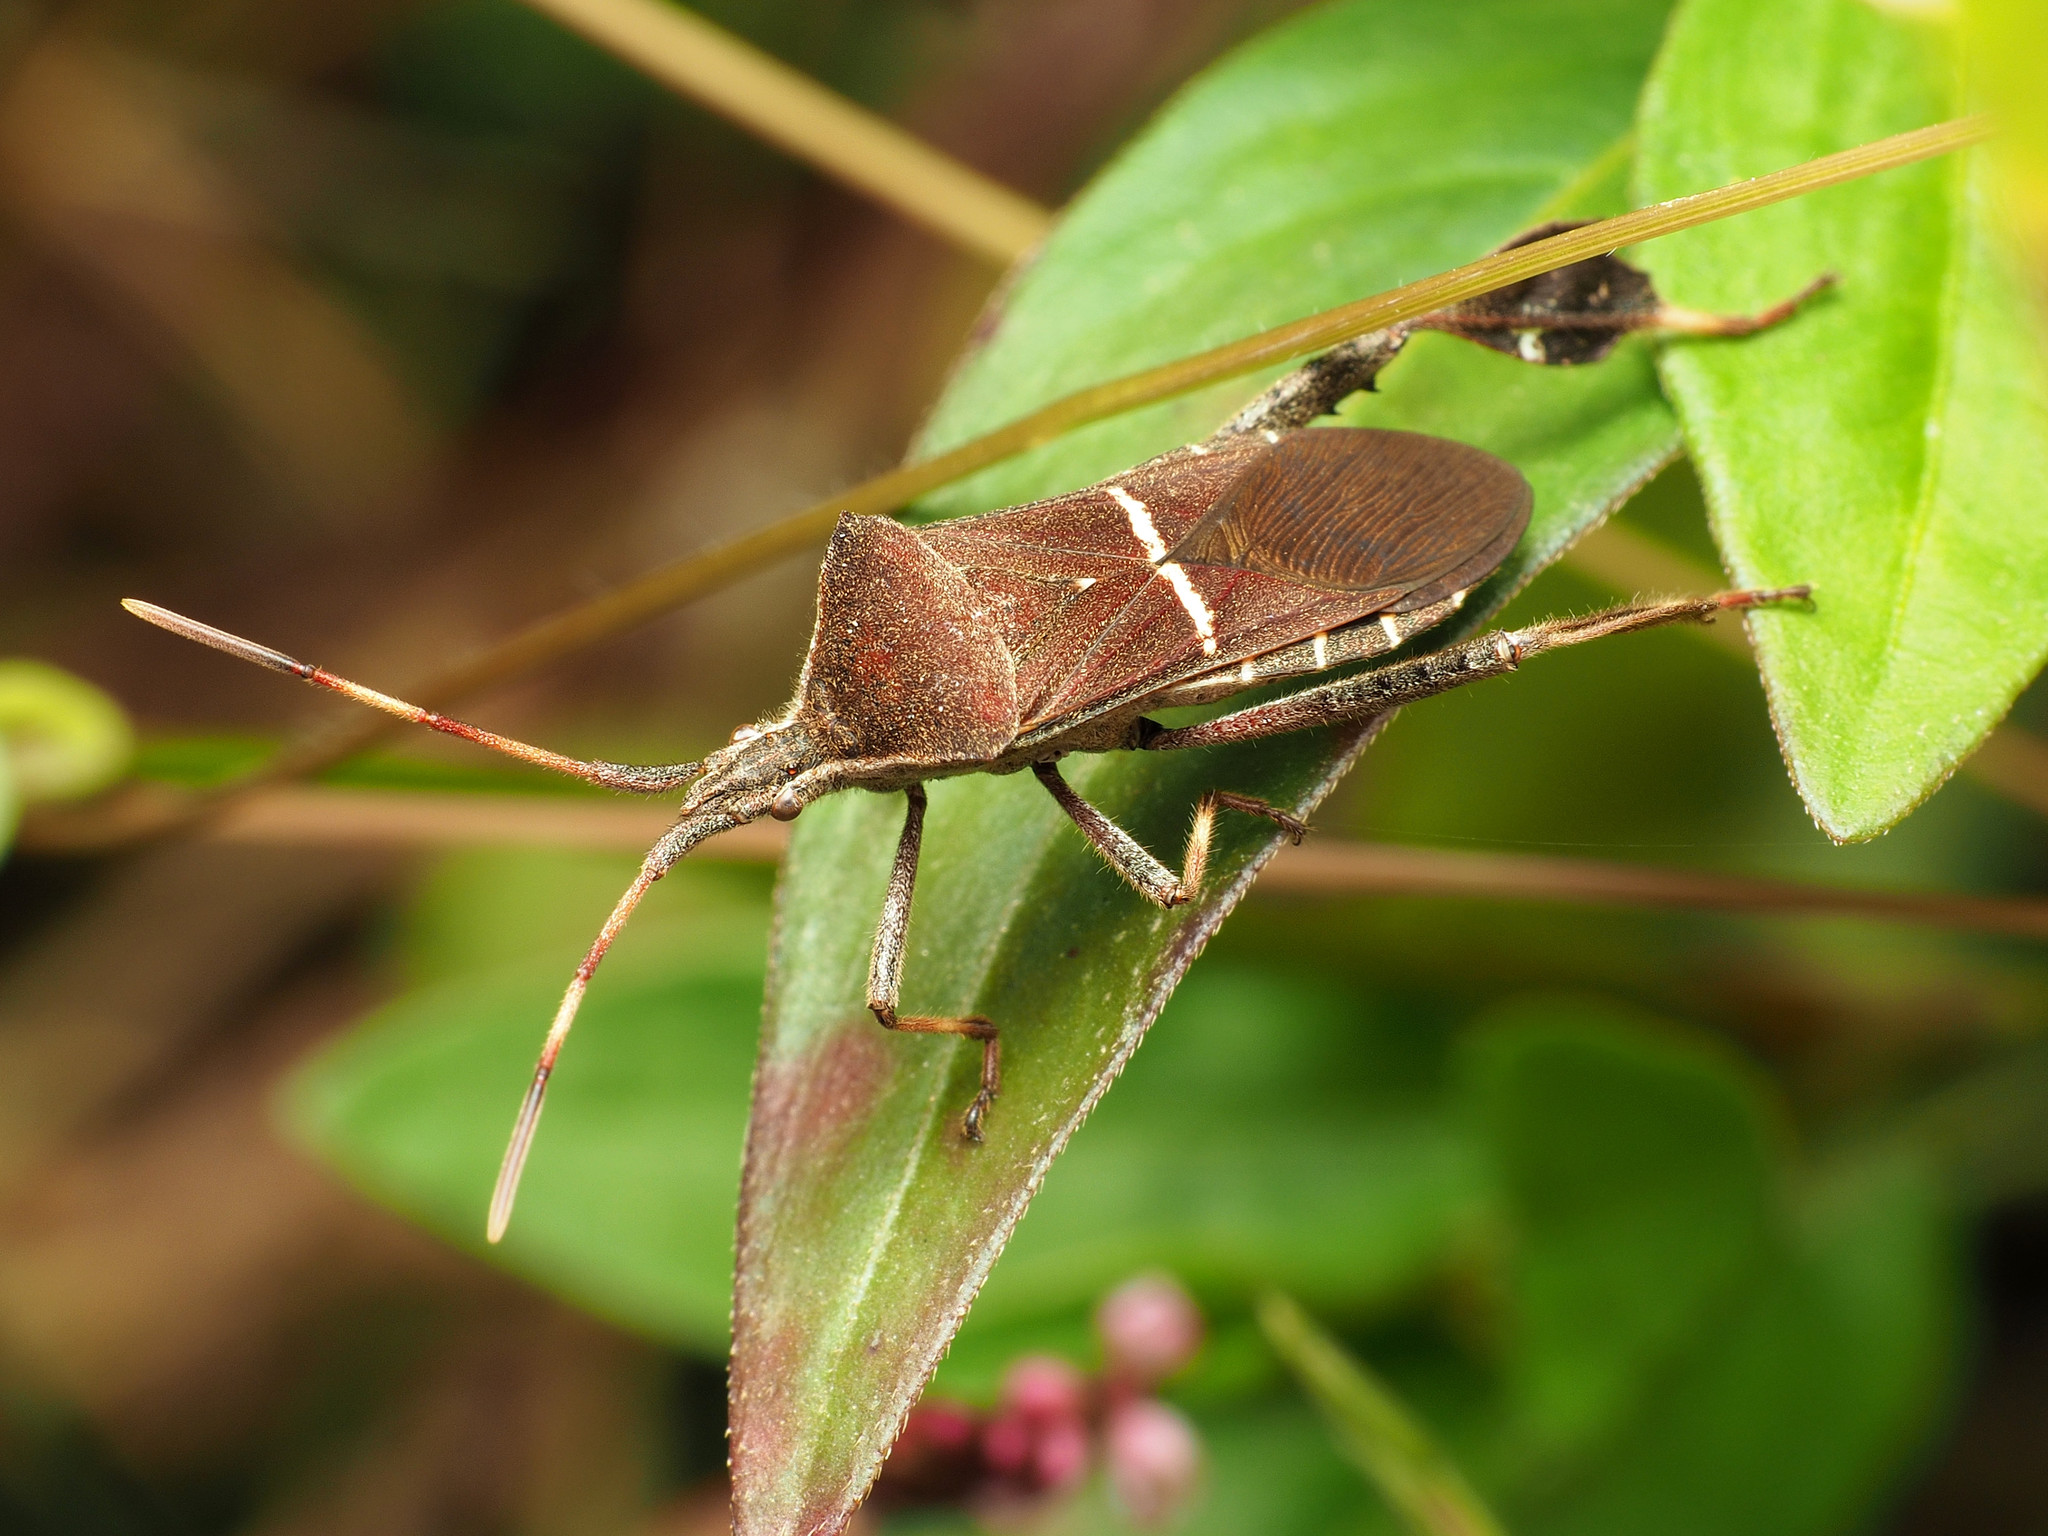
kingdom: Animalia
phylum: Arthropoda
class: Insecta
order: Hemiptera
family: Coreidae
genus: Leptoglossus
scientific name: Leptoglossus phyllopus
